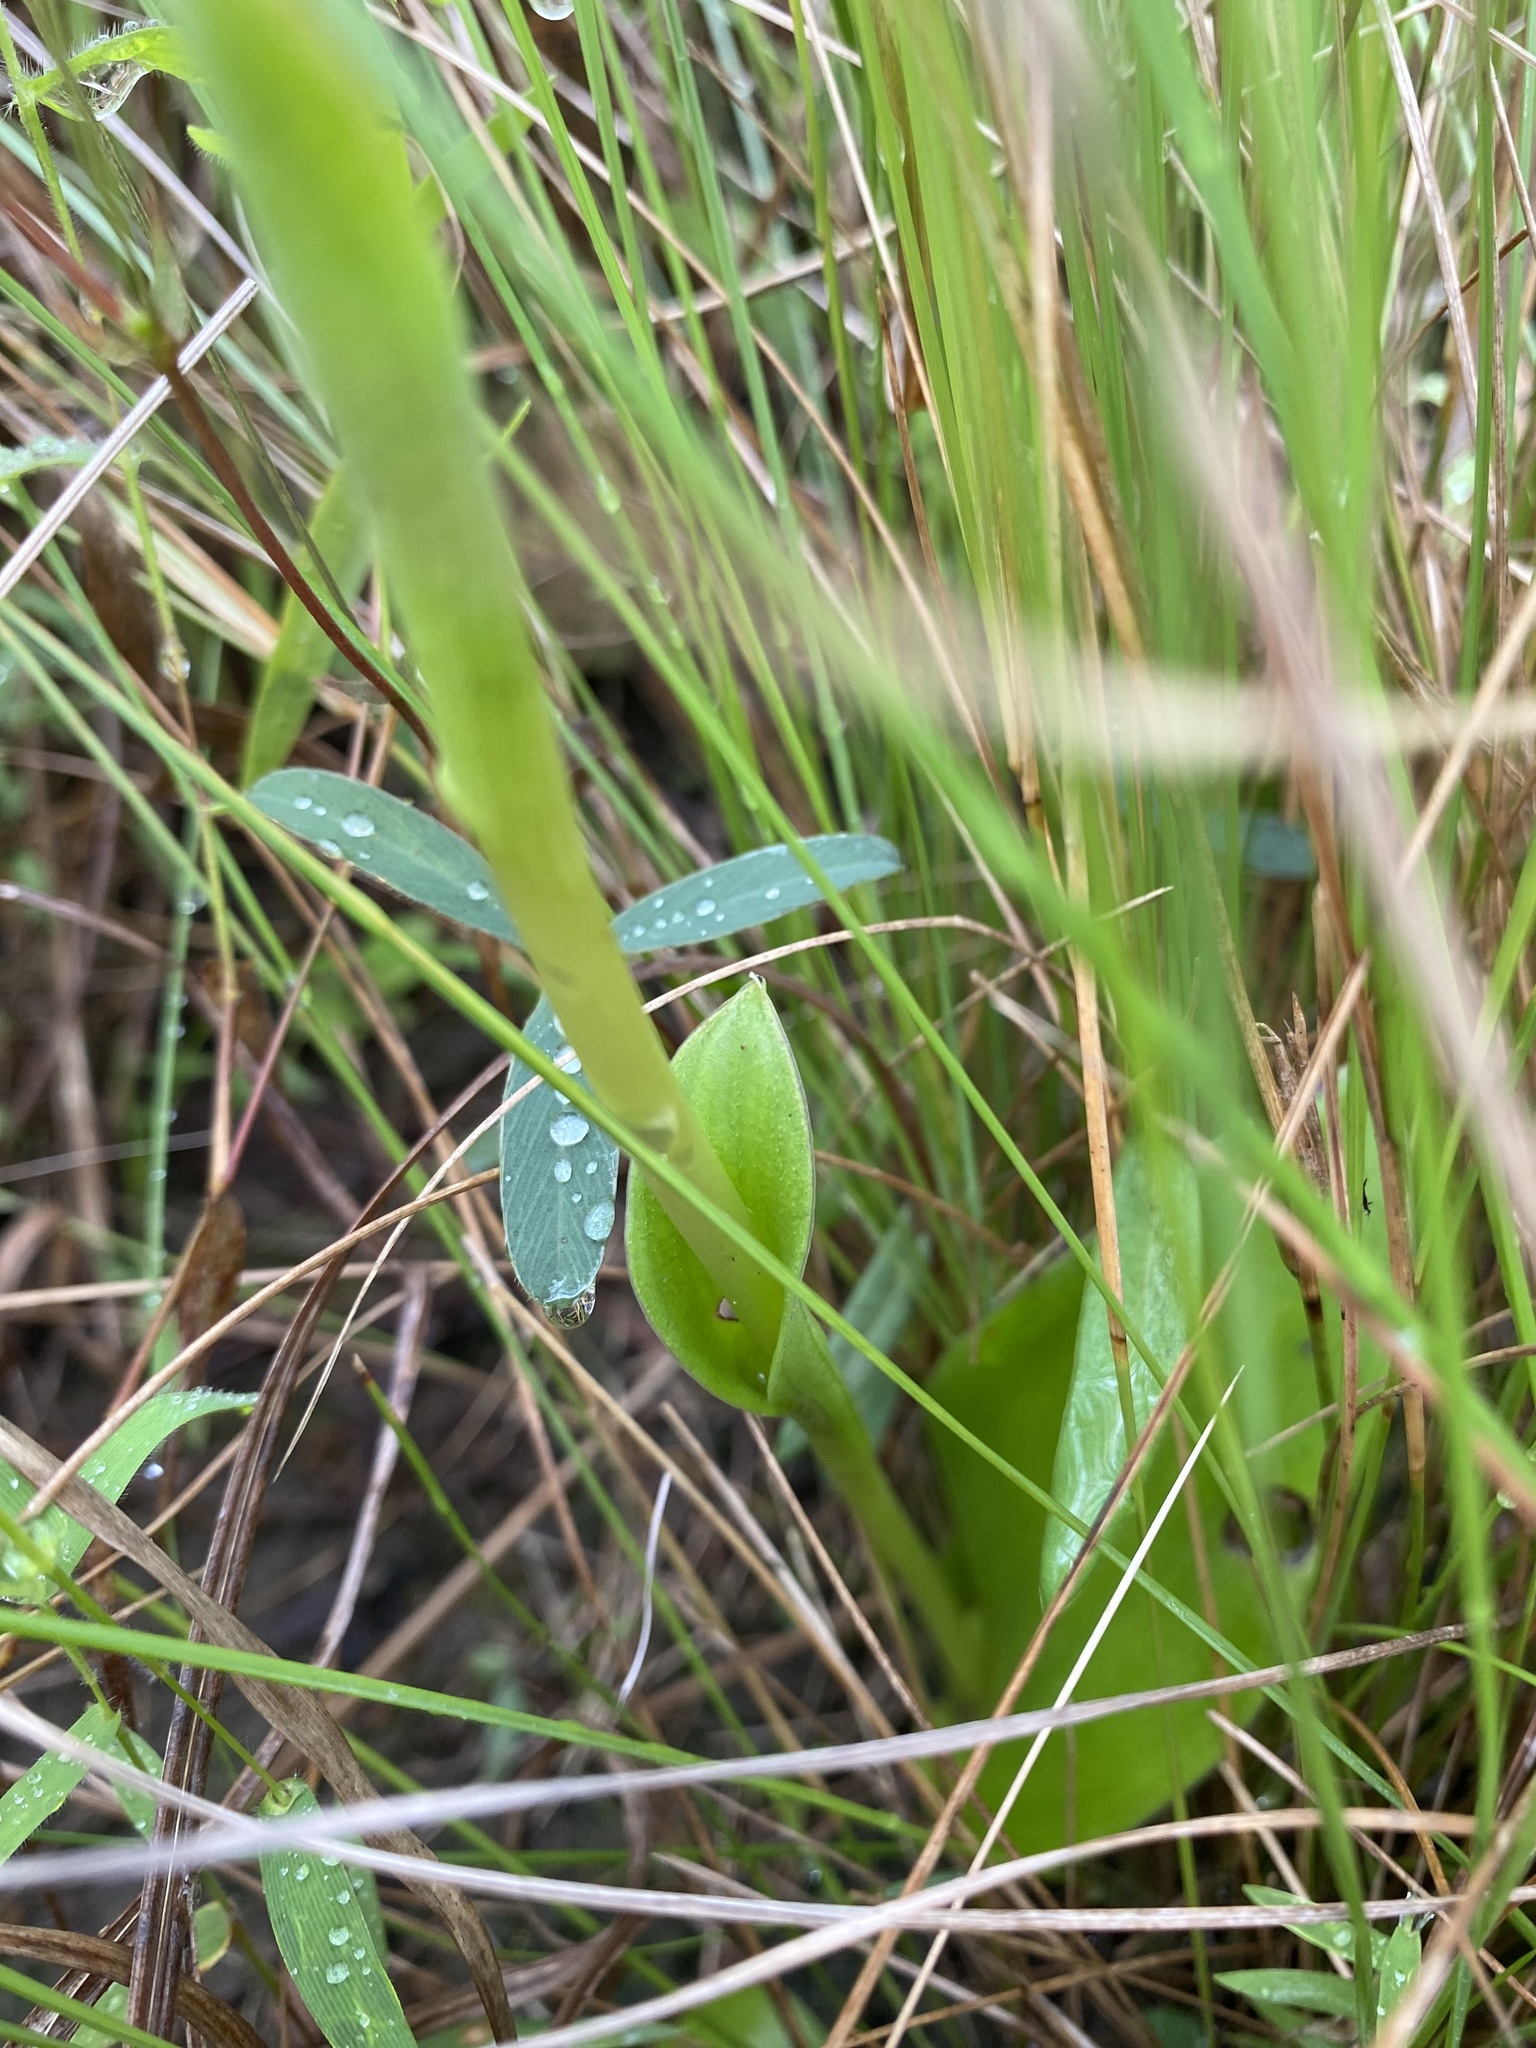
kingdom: Plantae
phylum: Tracheophyta
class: Liliopsida
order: Asparagales
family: Orchidaceae
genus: Satyrium
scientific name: Satyrium cristatum
